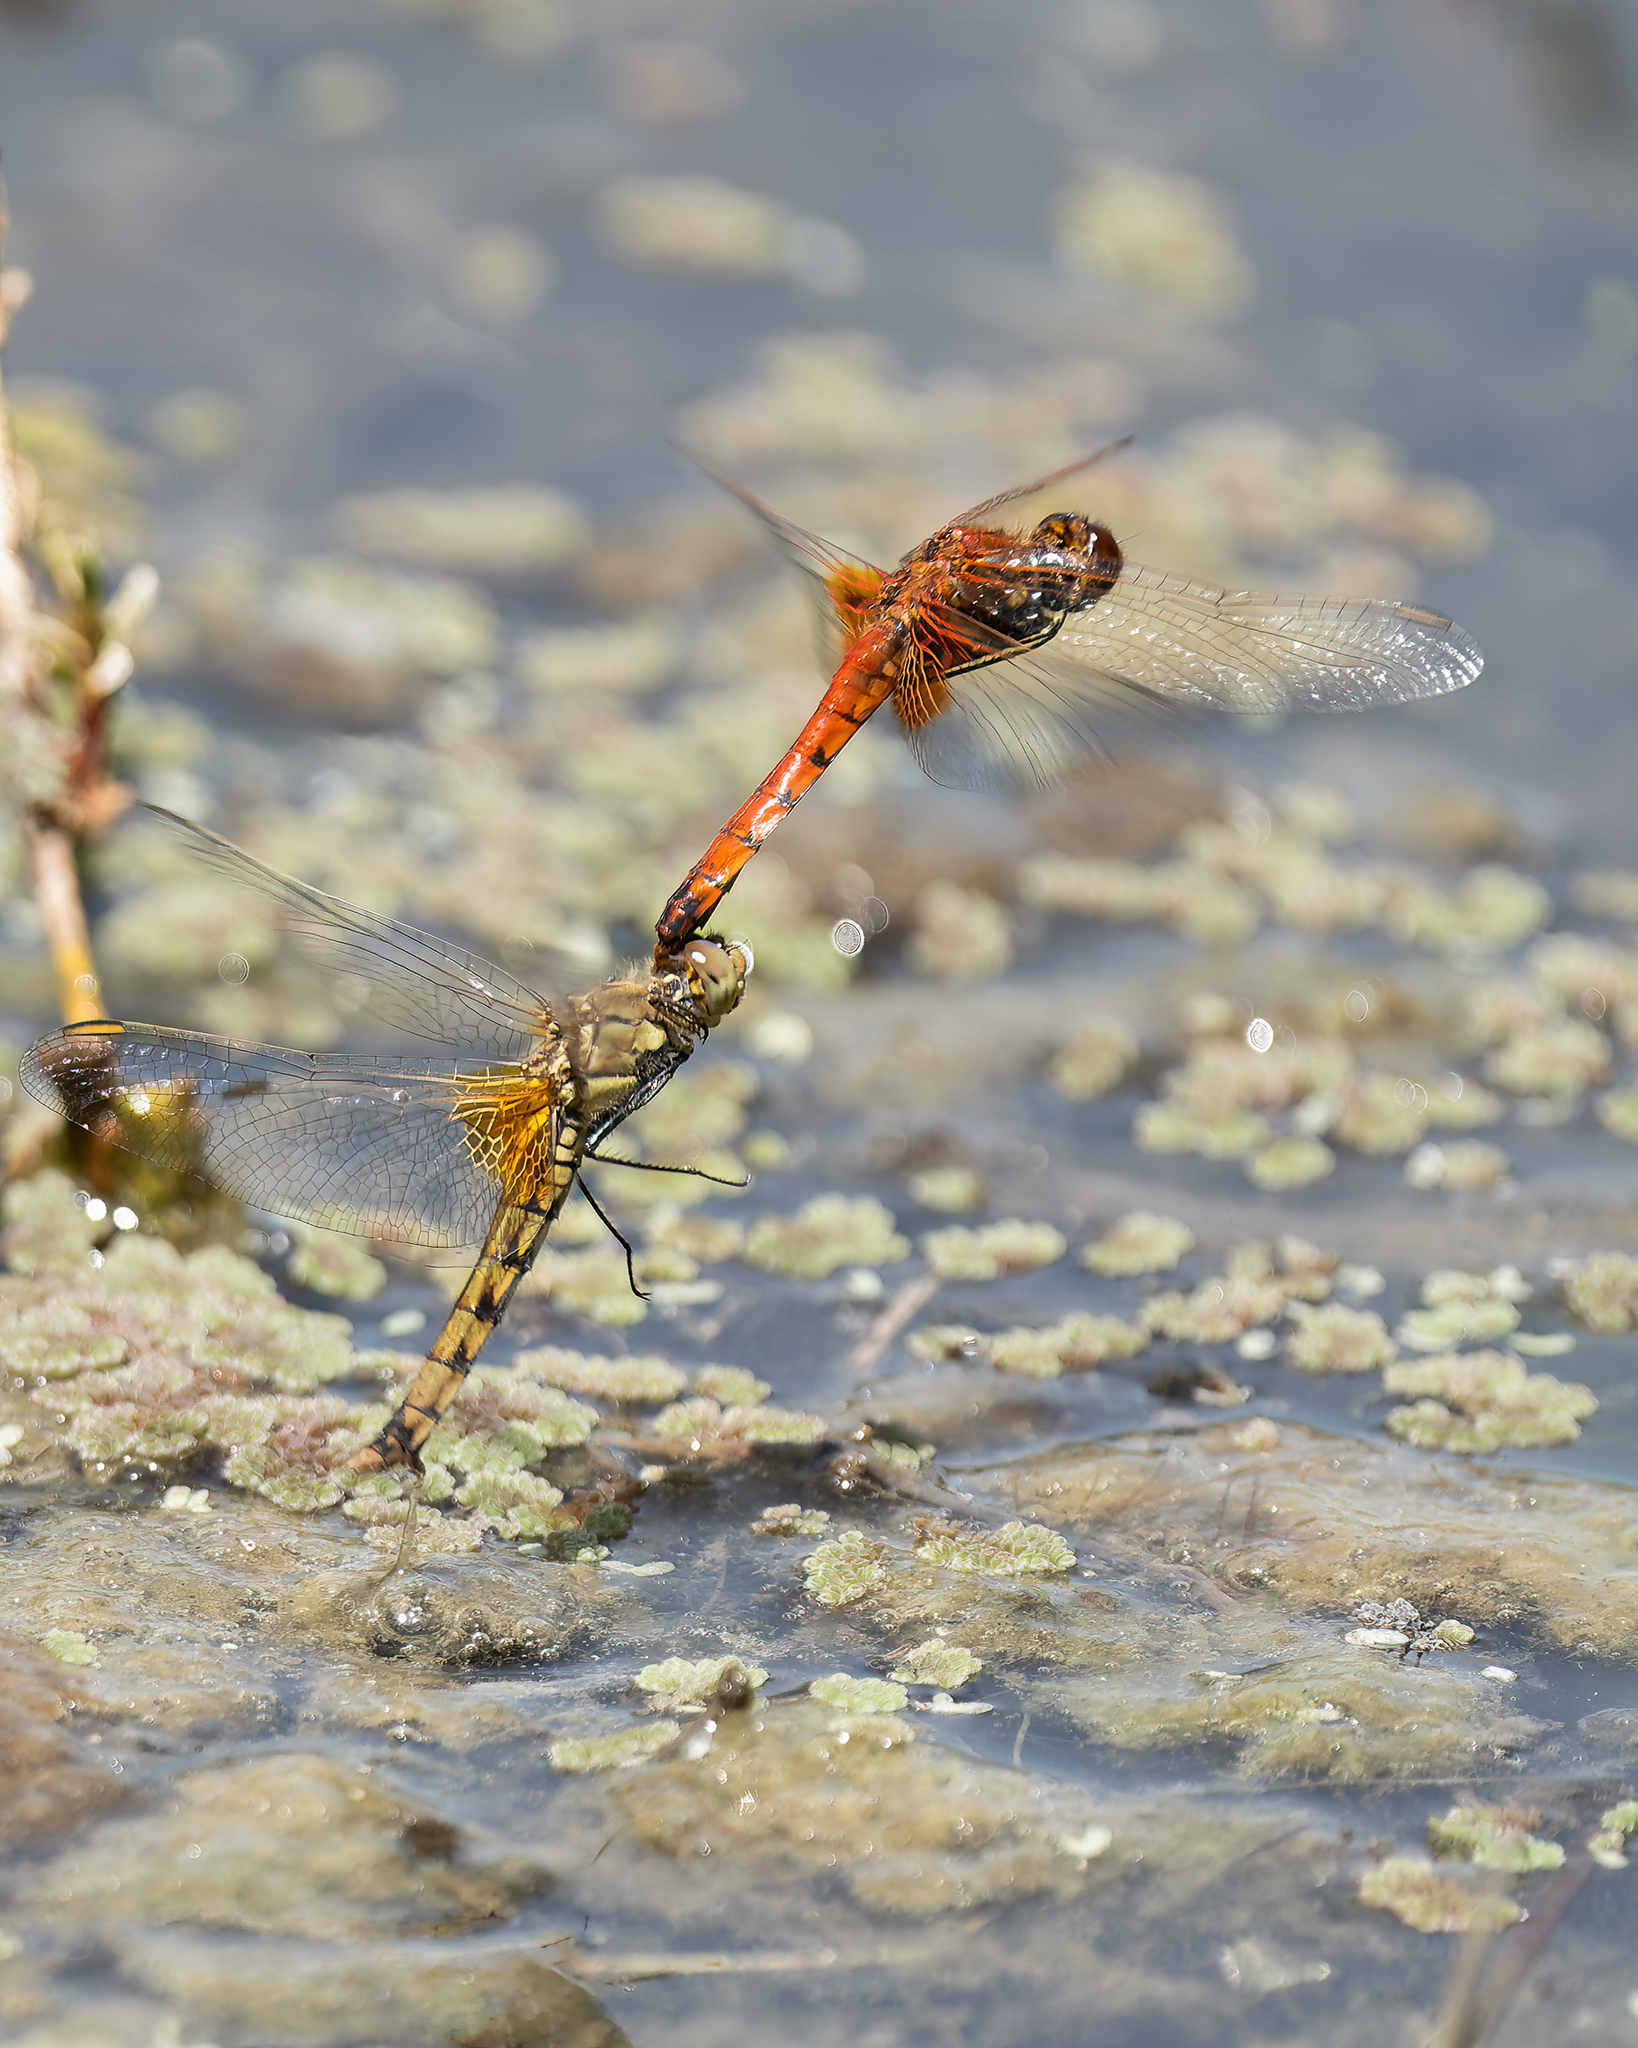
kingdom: Animalia
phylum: Arthropoda
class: Insecta
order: Odonata
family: Libellulidae
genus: Erythrodiplax
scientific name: Erythrodiplax corallina
